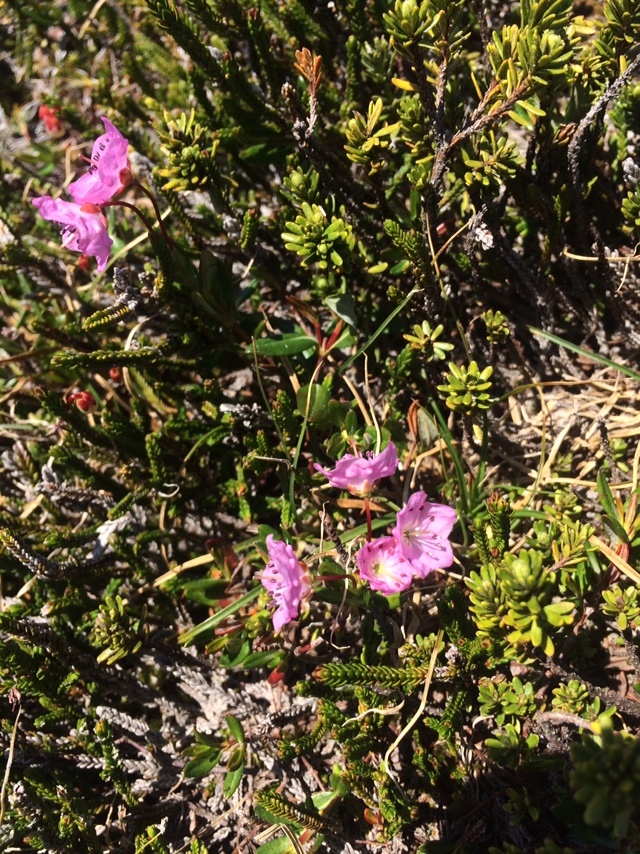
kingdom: Plantae
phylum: Tracheophyta
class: Magnoliopsida
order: Ericales
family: Ericaceae
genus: Kalmia
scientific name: Kalmia microphylla
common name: Alpine bog laurel
